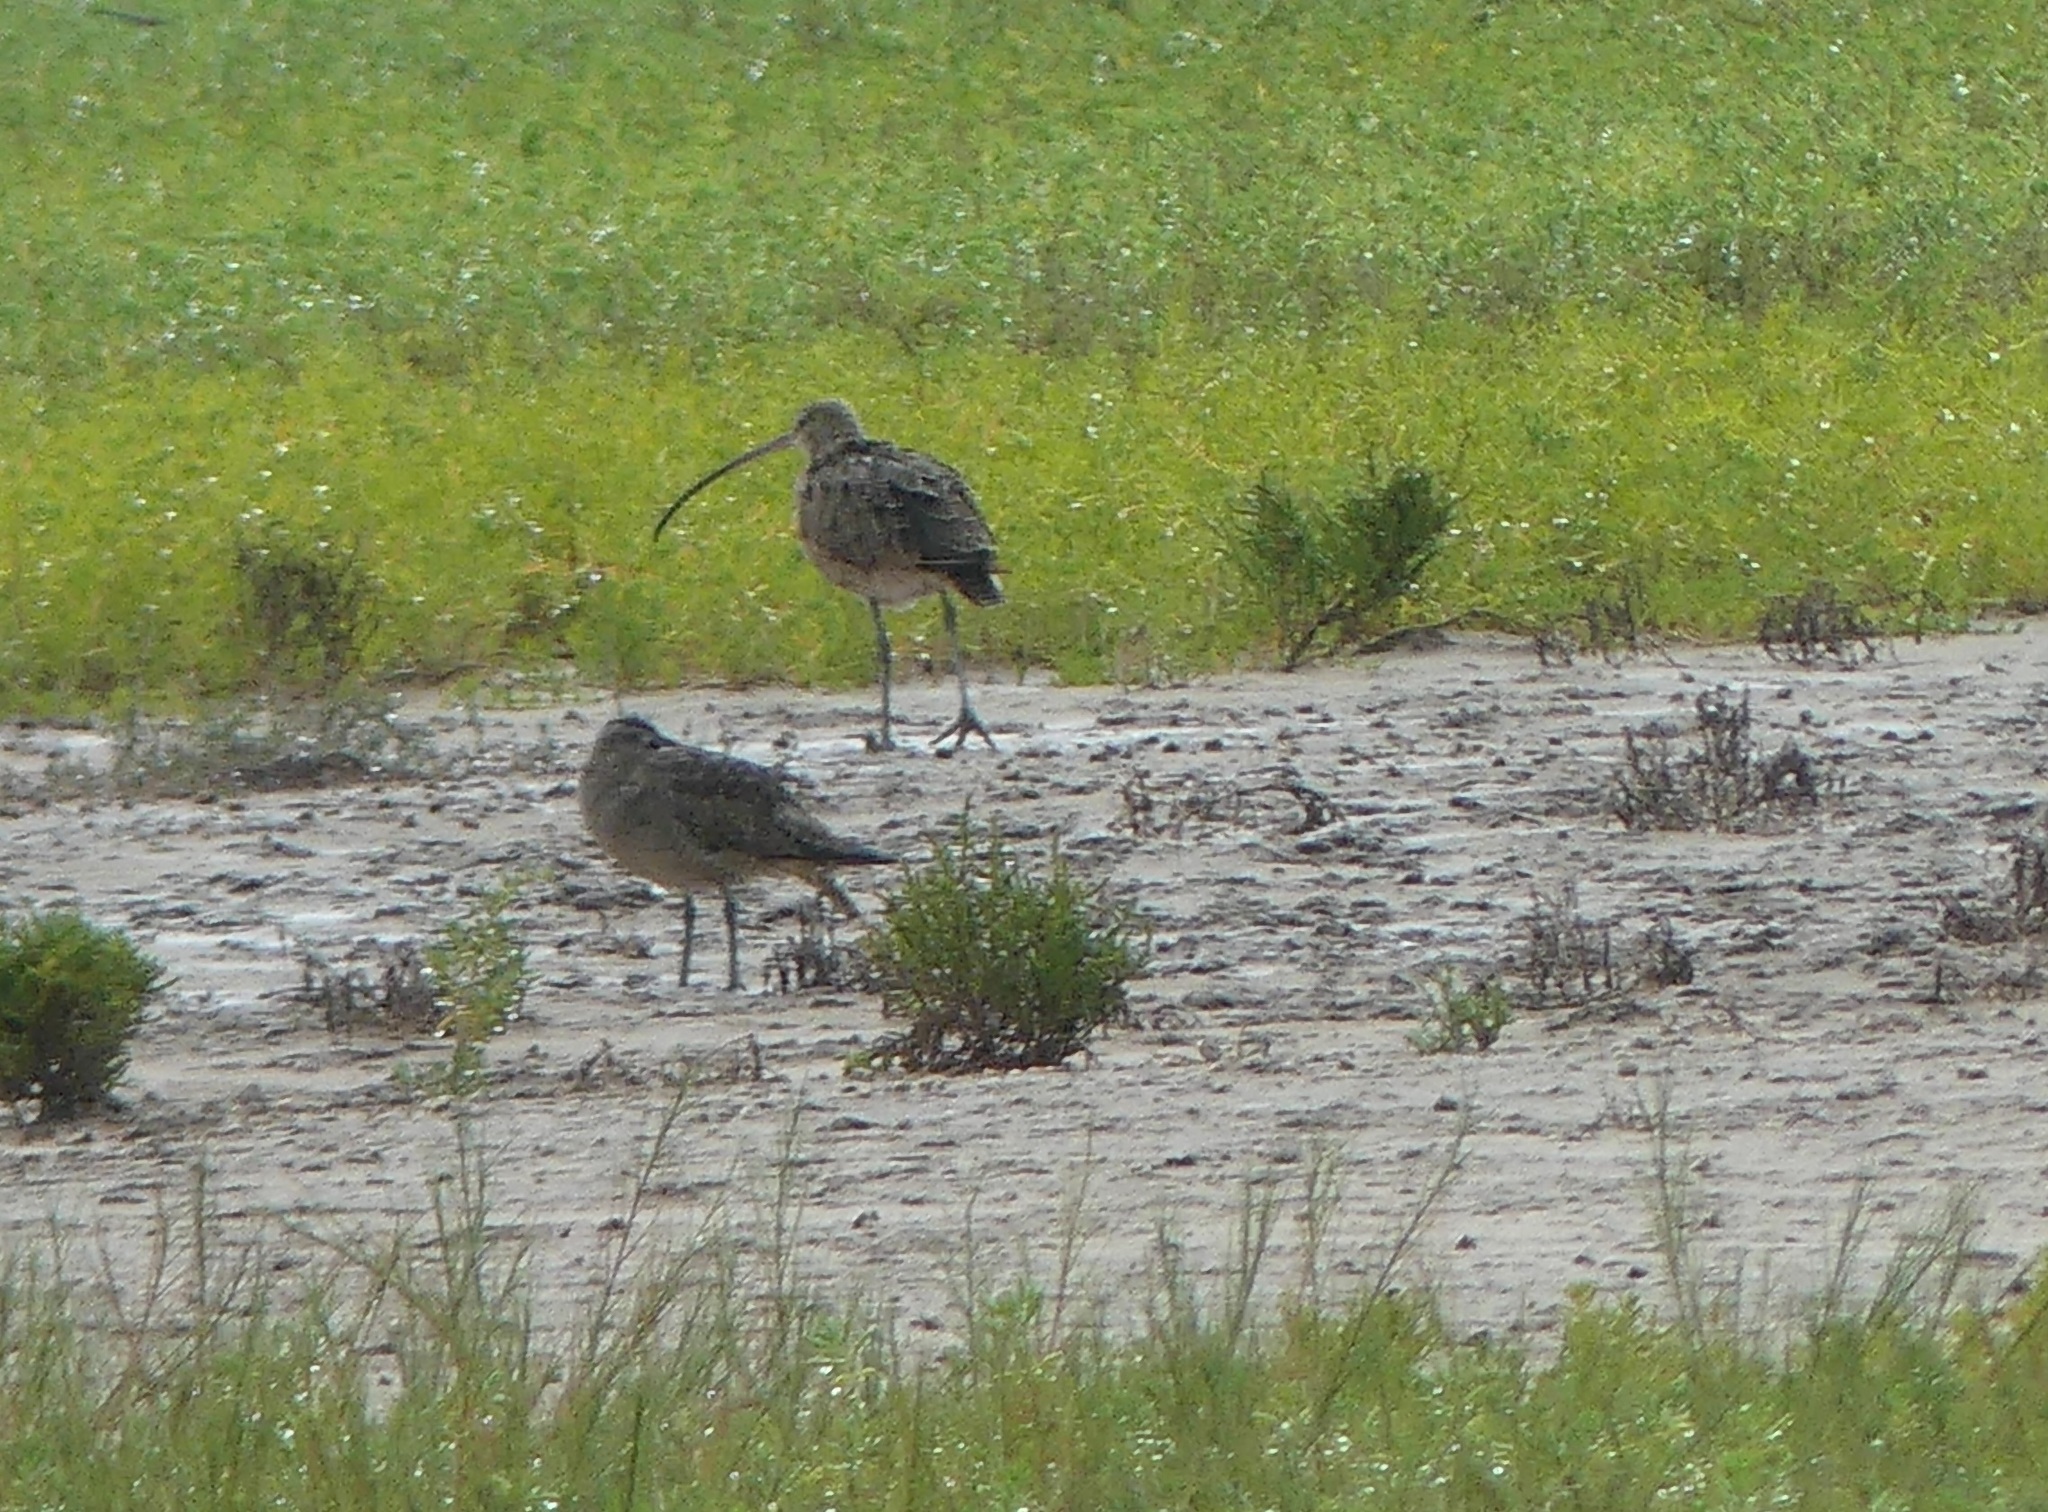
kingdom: Animalia
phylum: Chordata
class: Aves
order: Charadriiformes
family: Scolopacidae
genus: Numenius
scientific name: Numenius americanus
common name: Long-billed curlew
